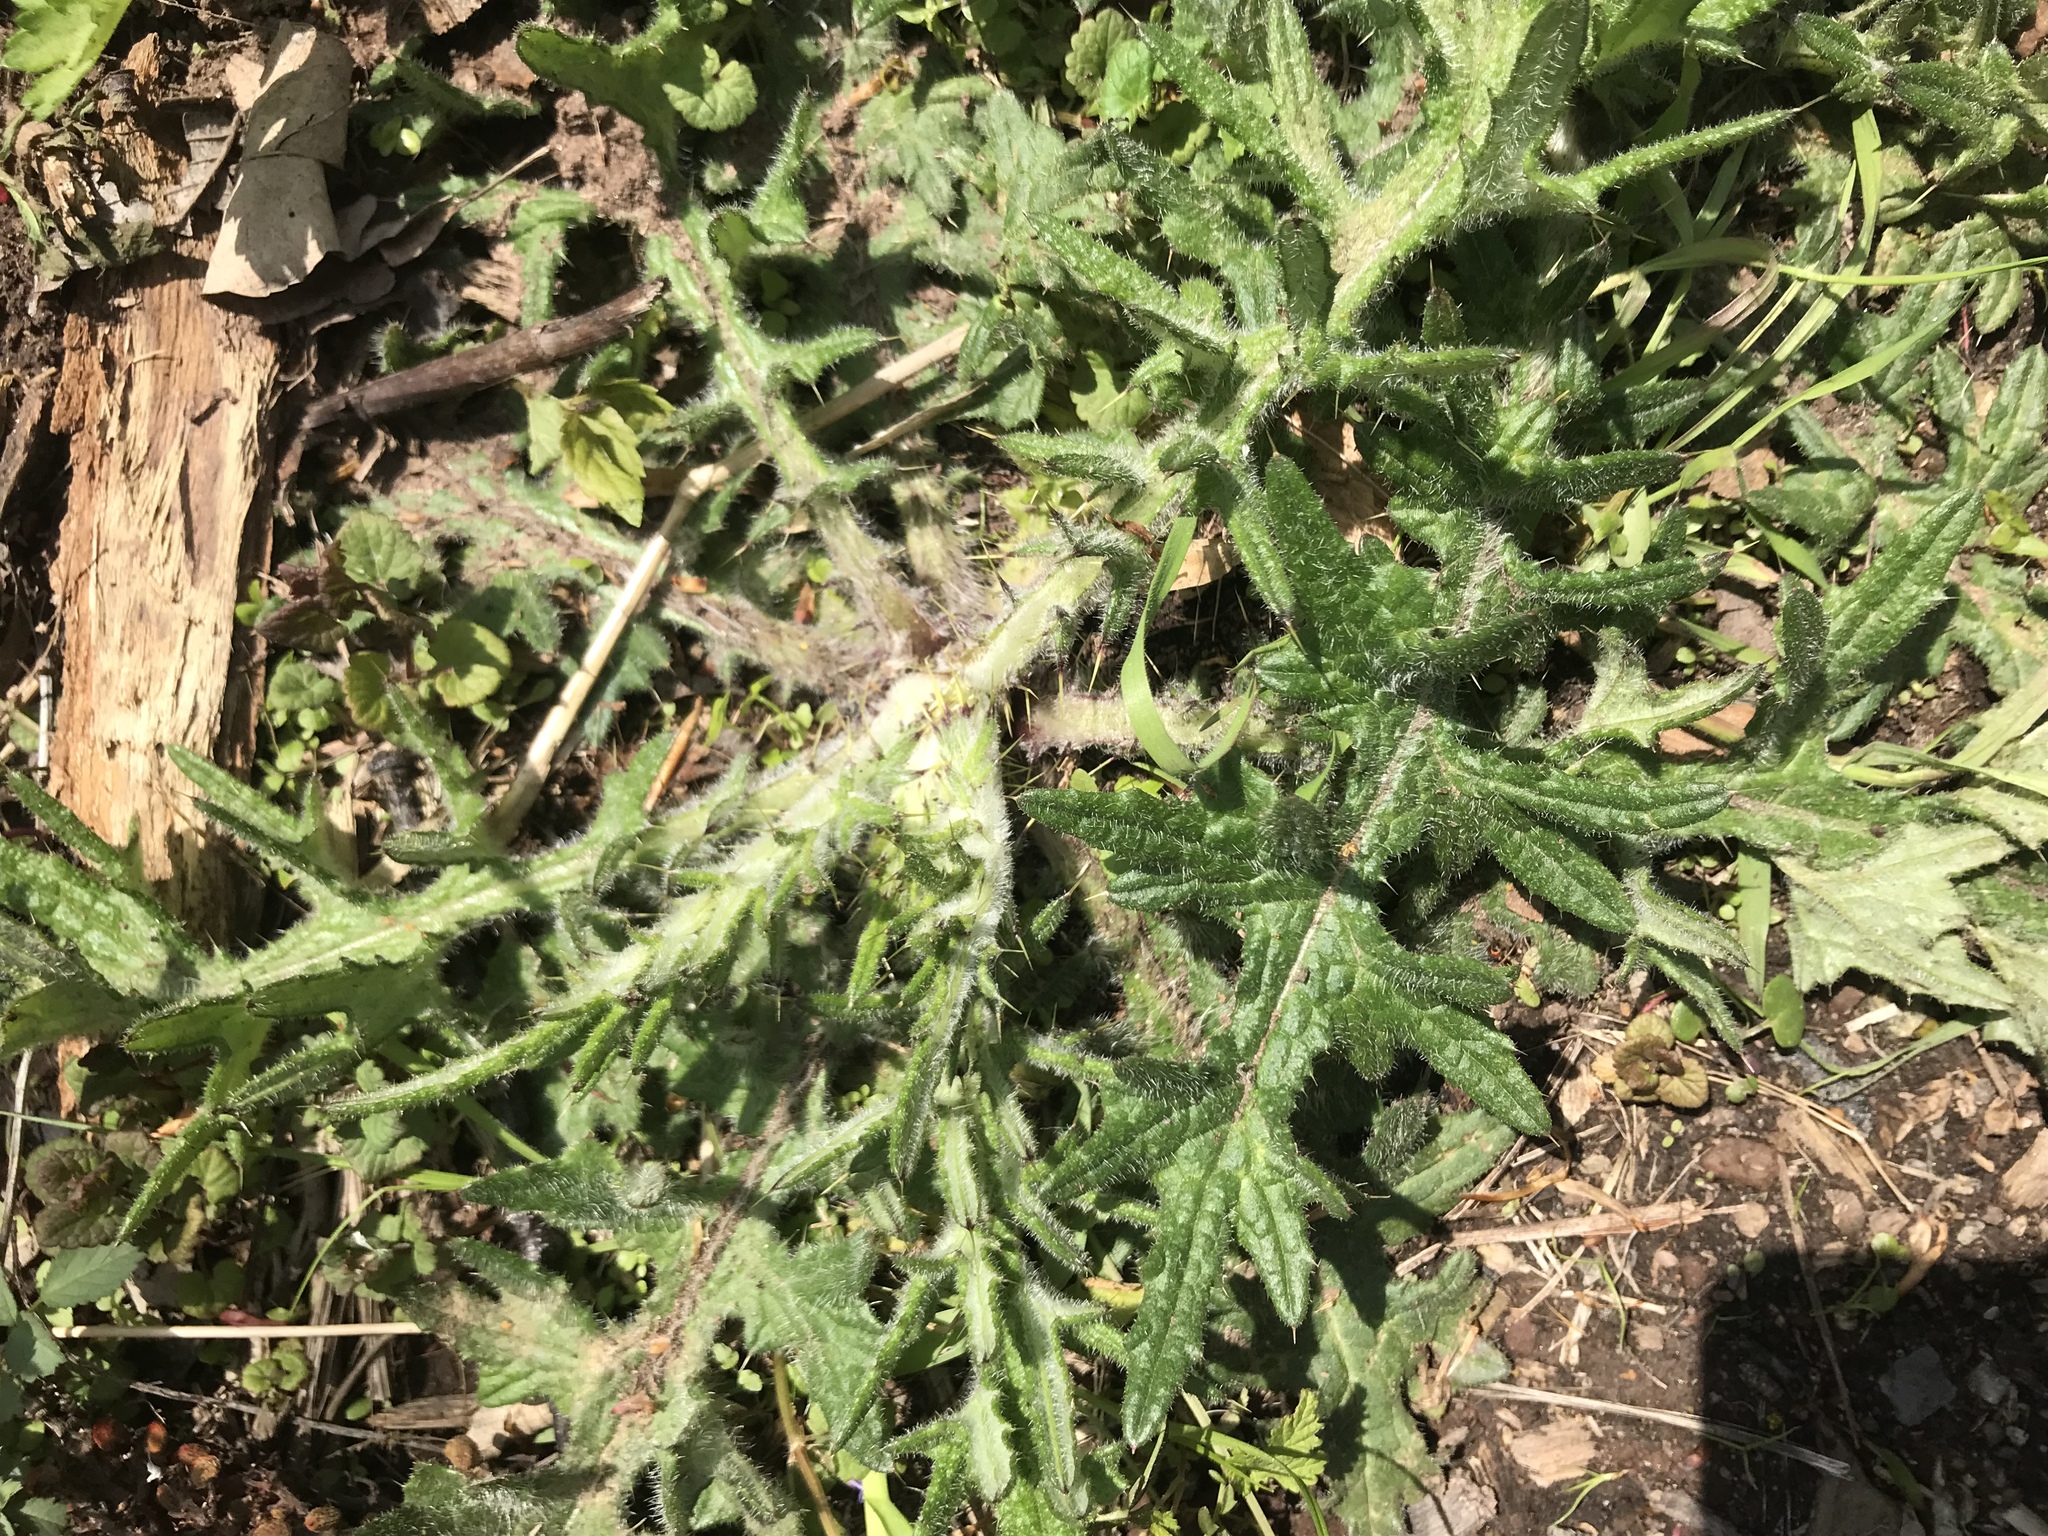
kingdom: Plantae
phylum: Tracheophyta
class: Magnoliopsida
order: Asterales
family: Asteraceae
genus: Cirsium
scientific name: Cirsium vulgare
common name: Bull thistle
